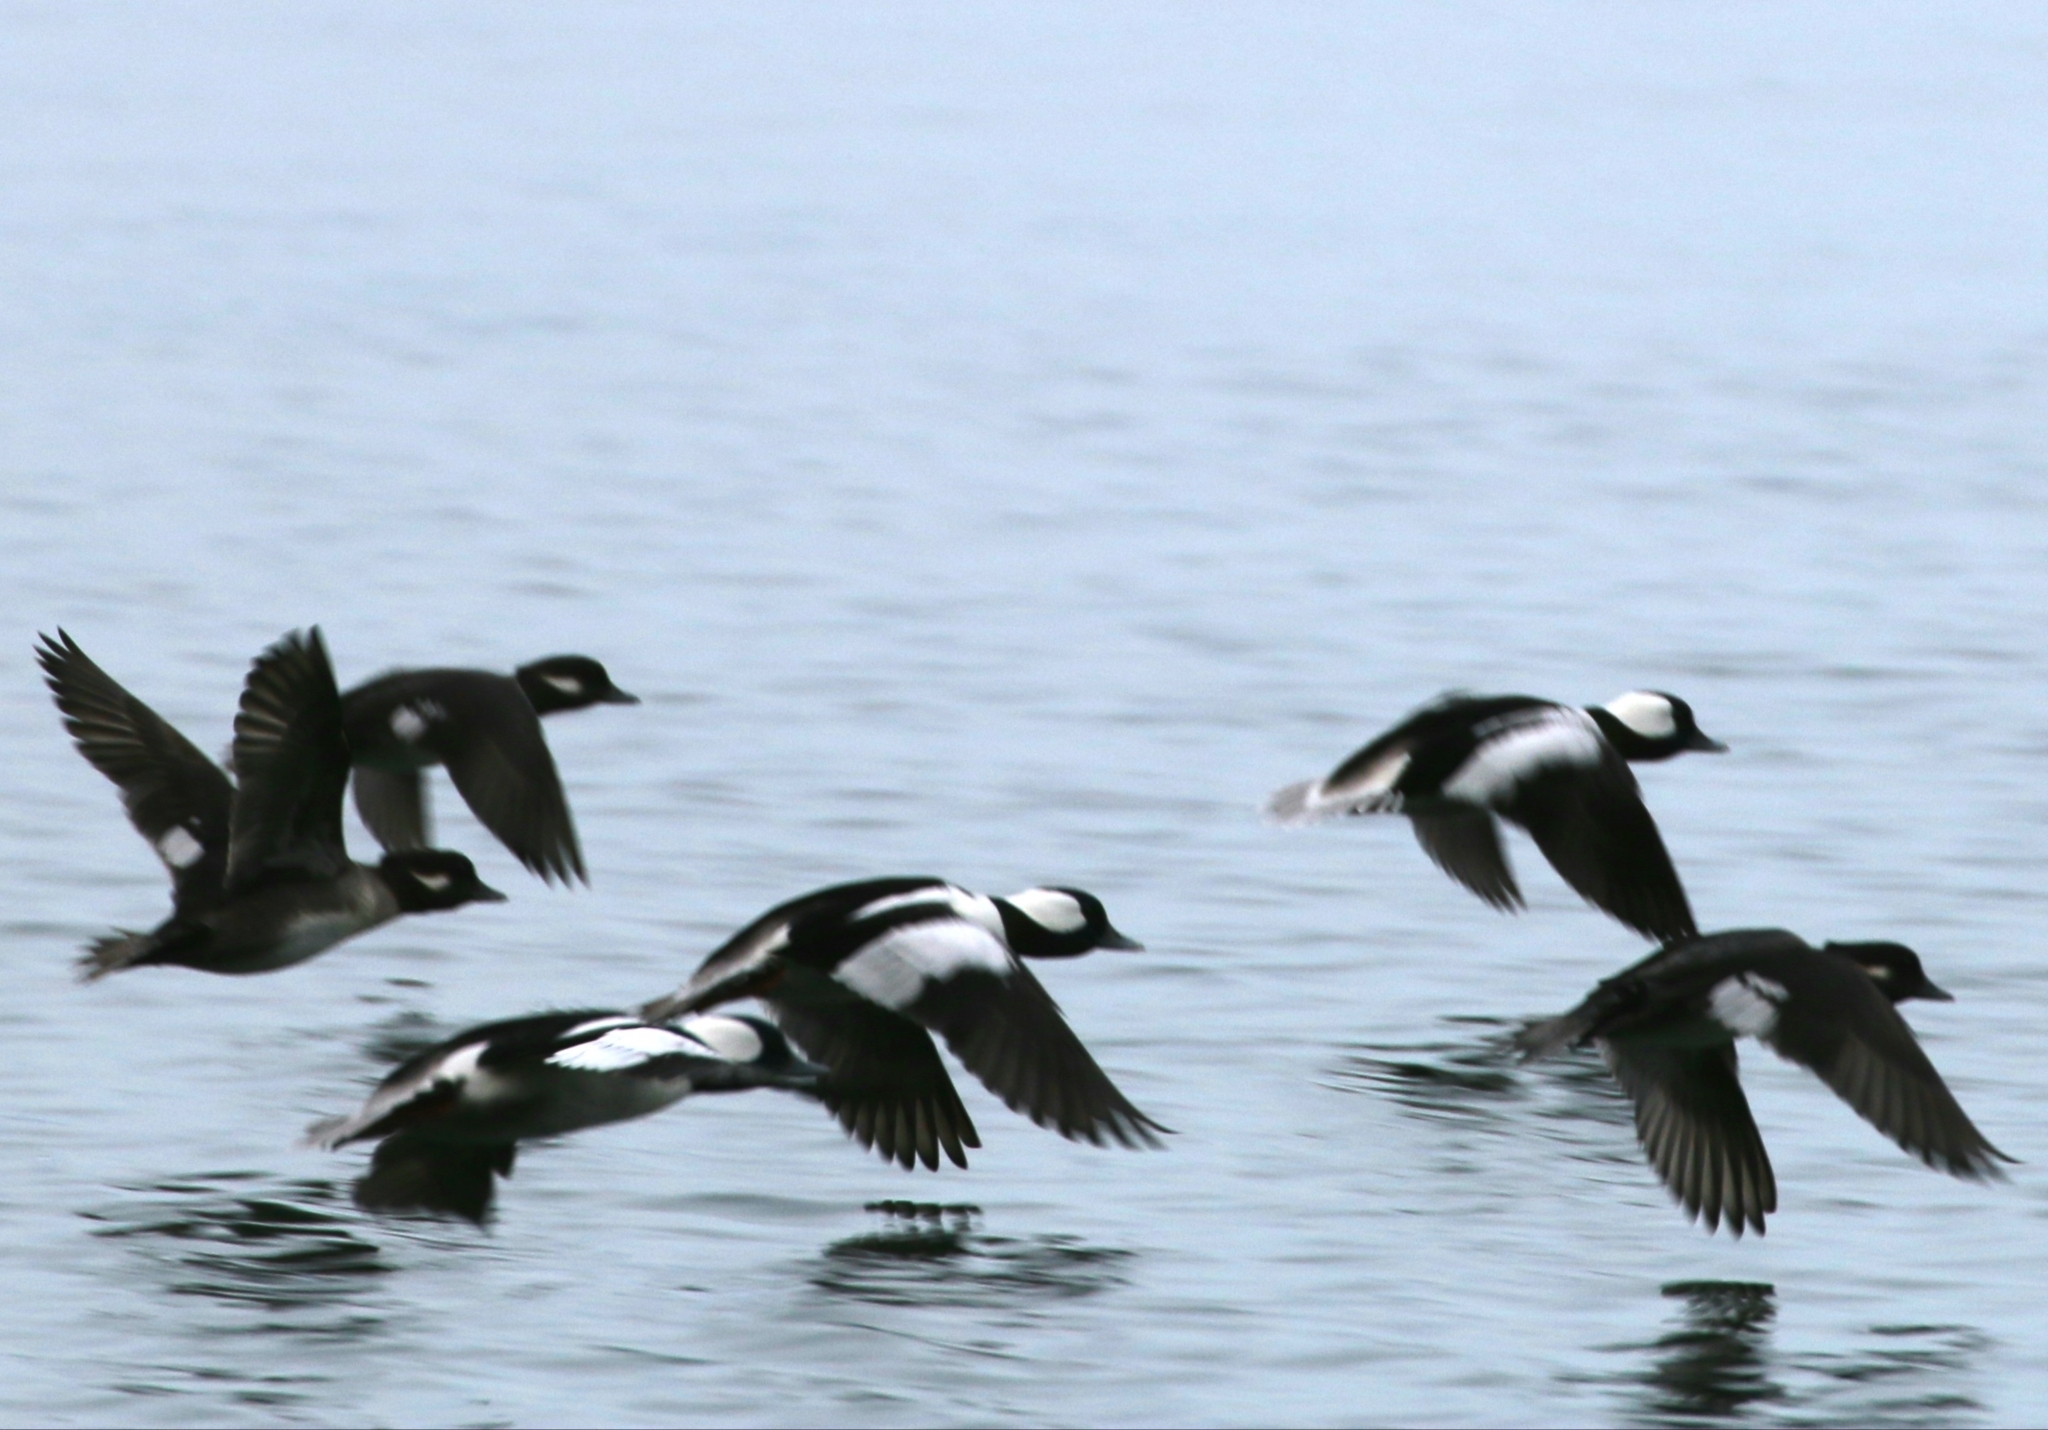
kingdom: Animalia
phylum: Chordata
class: Aves
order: Anseriformes
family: Anatidae
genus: Bucephala
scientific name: Bucephala albeola
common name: Bufflehead
